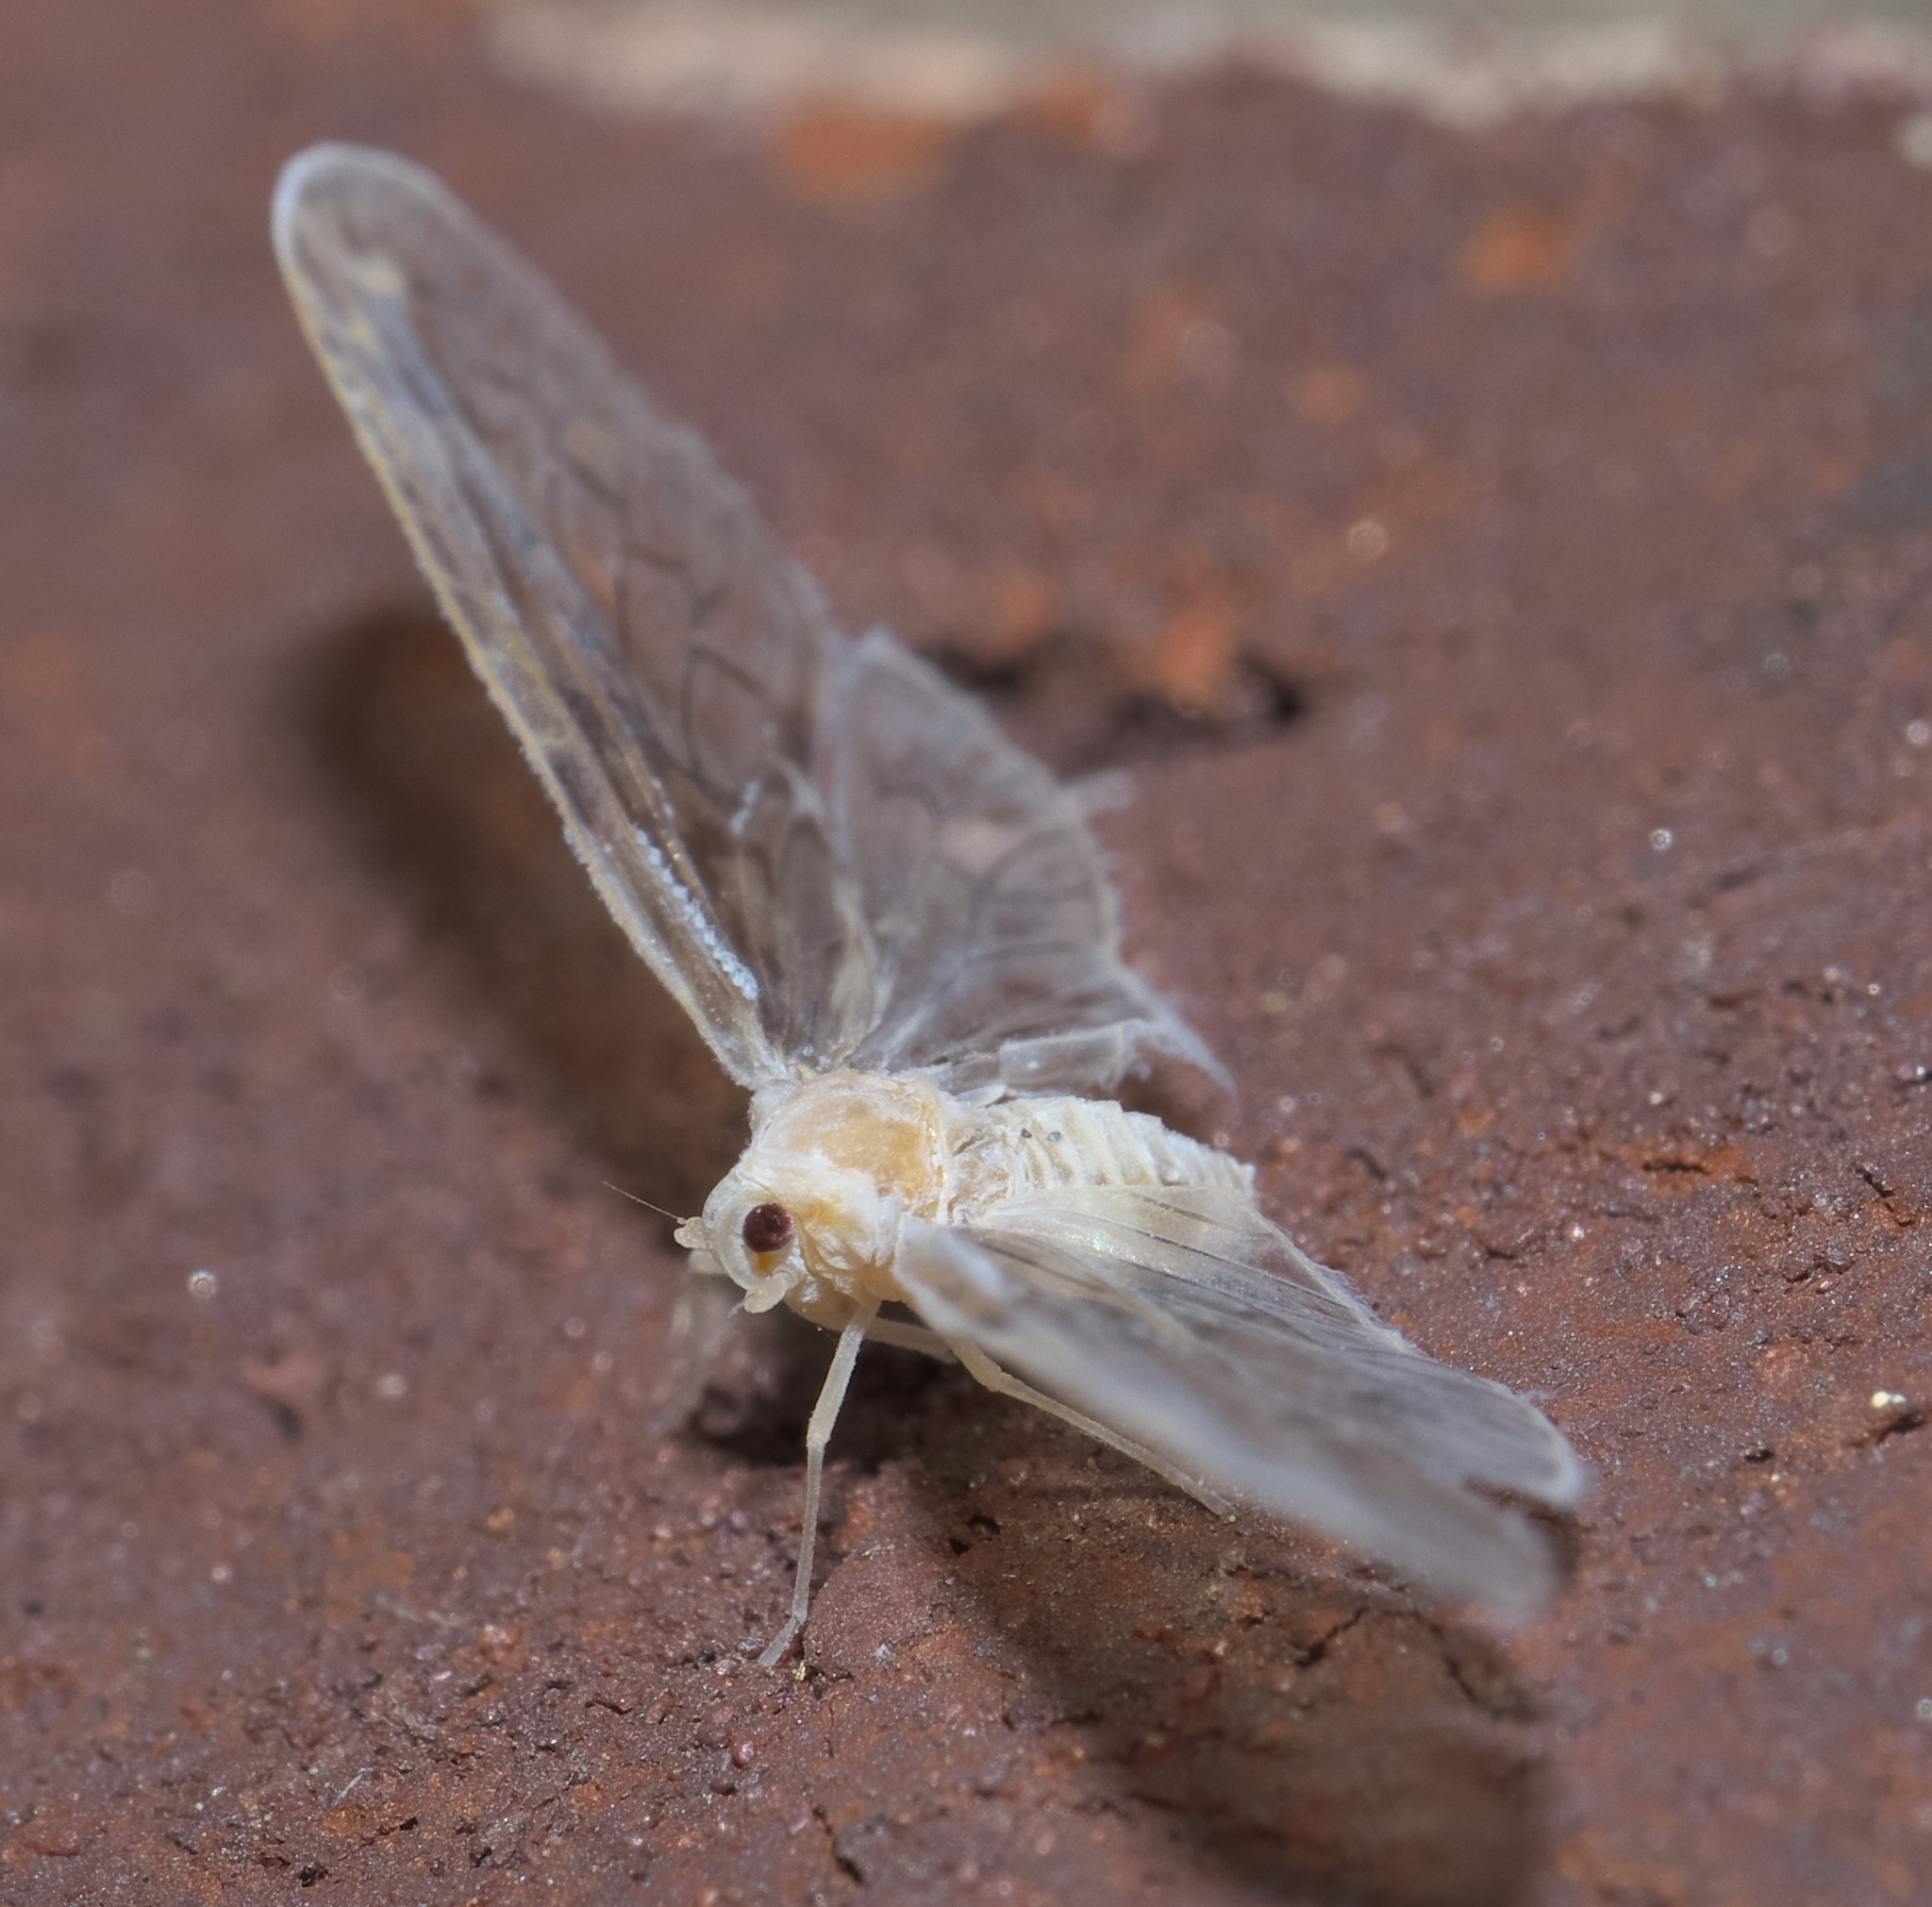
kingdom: Animalia
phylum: Arthropoda
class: Insecta
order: Hemiptera
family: Derbidae
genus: Paramysidia
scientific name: Paramysidia mississippiensis
